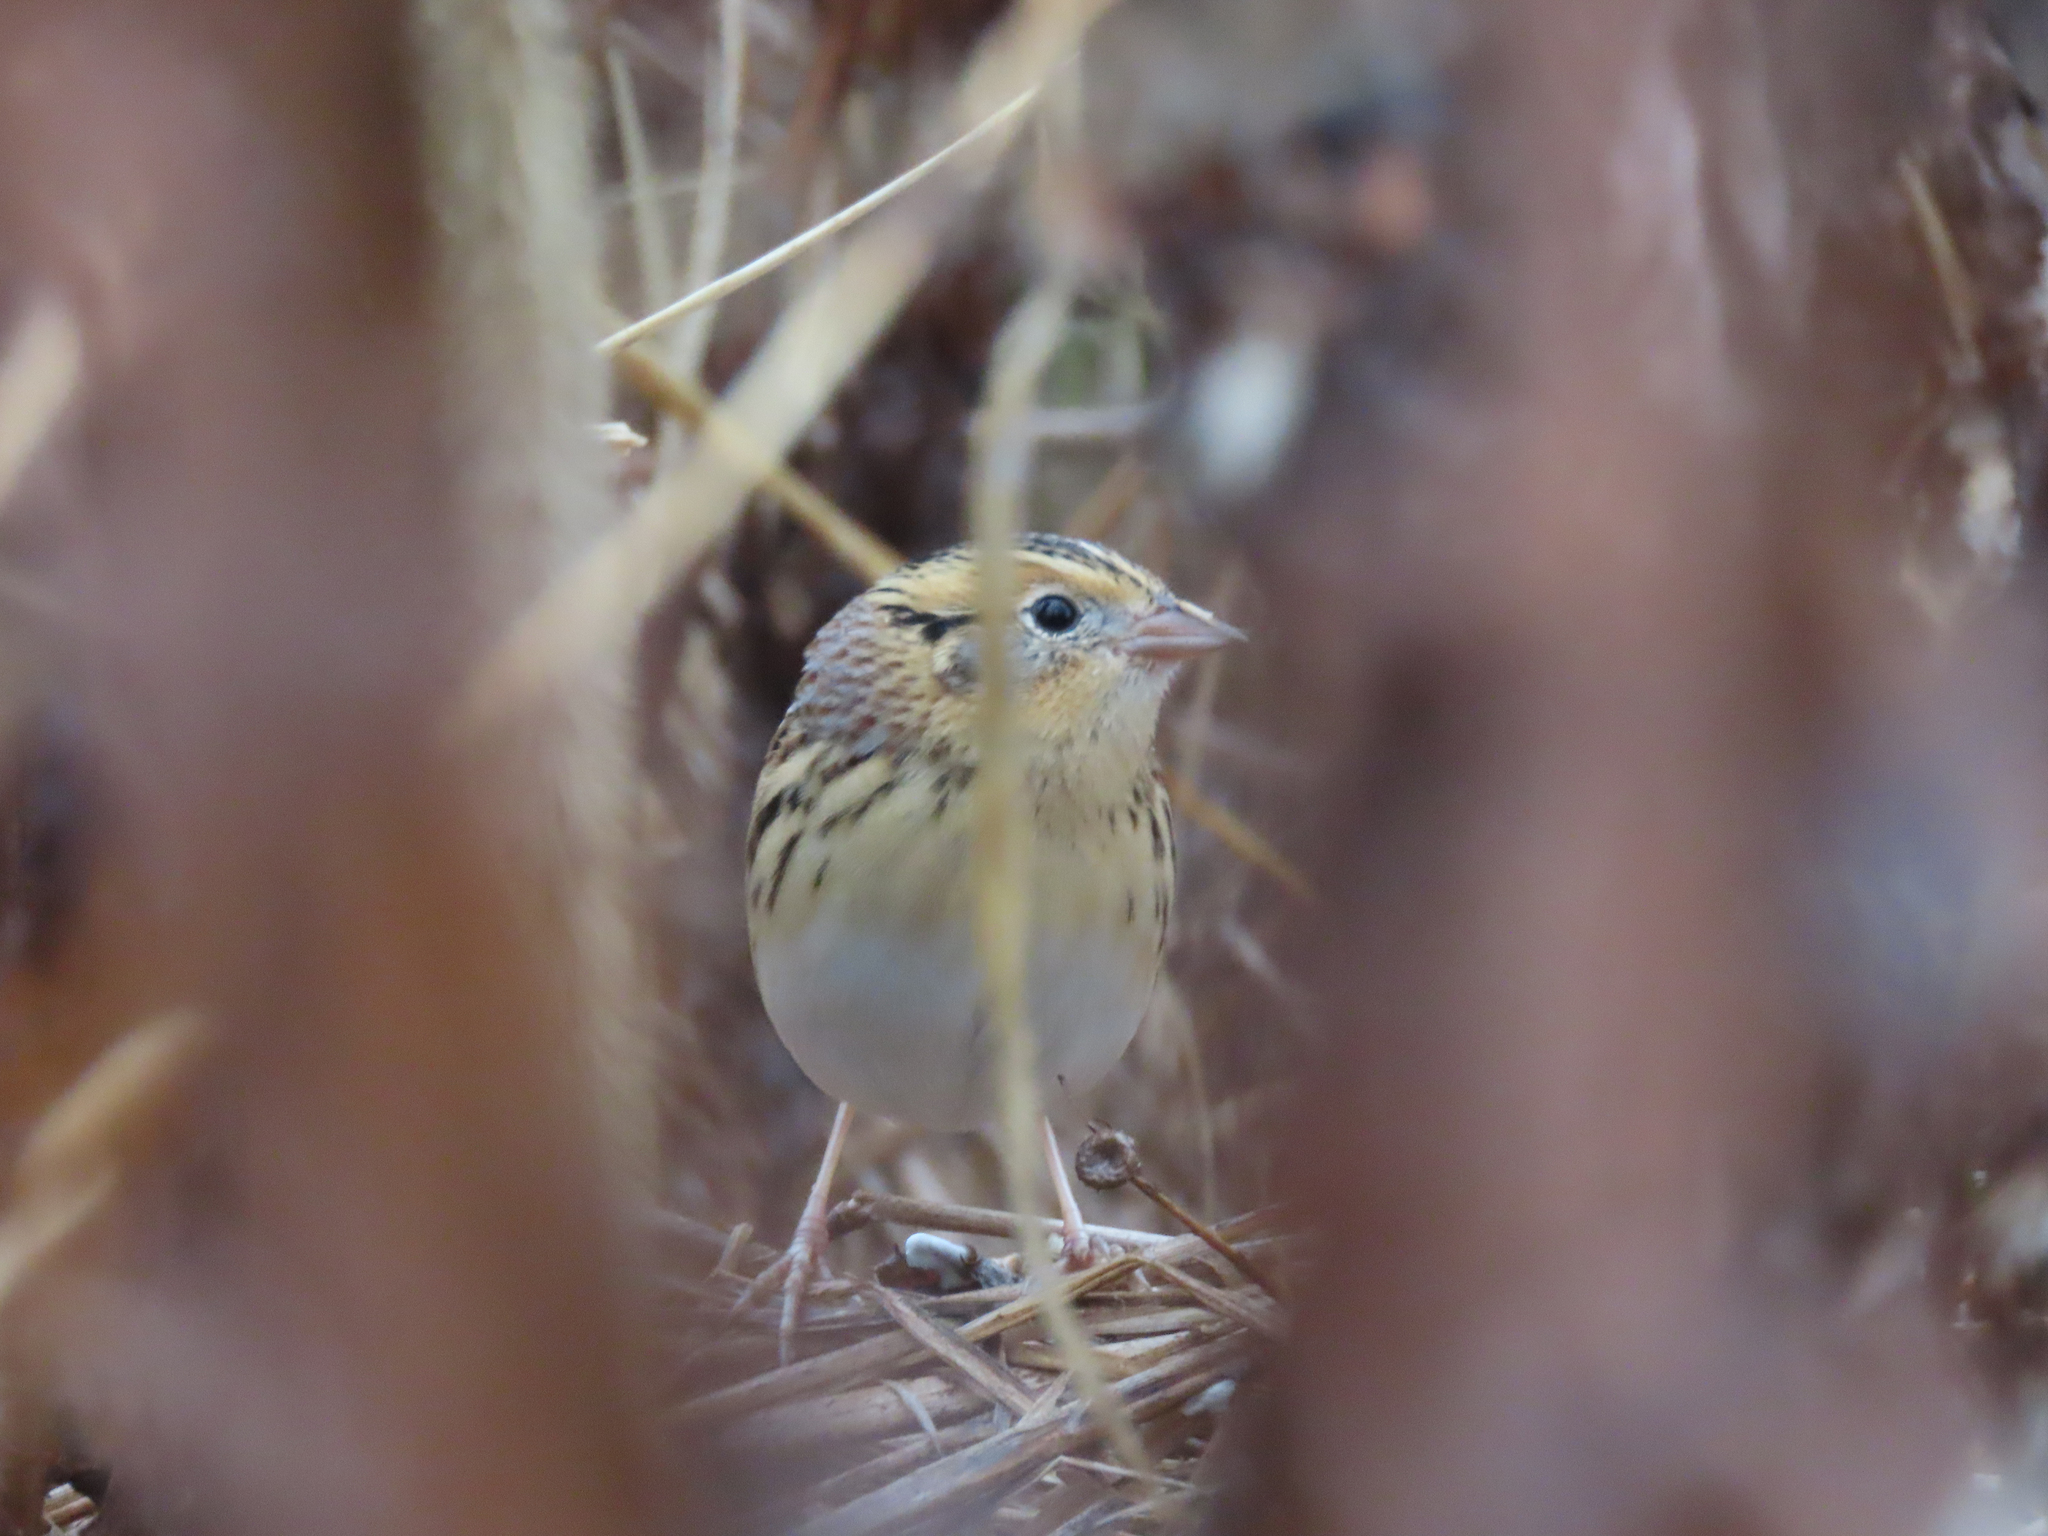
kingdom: Animalia
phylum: Chordata
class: Aves
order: Passeriformes
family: Passerellidae
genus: Ammospiza
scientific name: Ammospiza leconteii
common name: Le conte's sparrow
